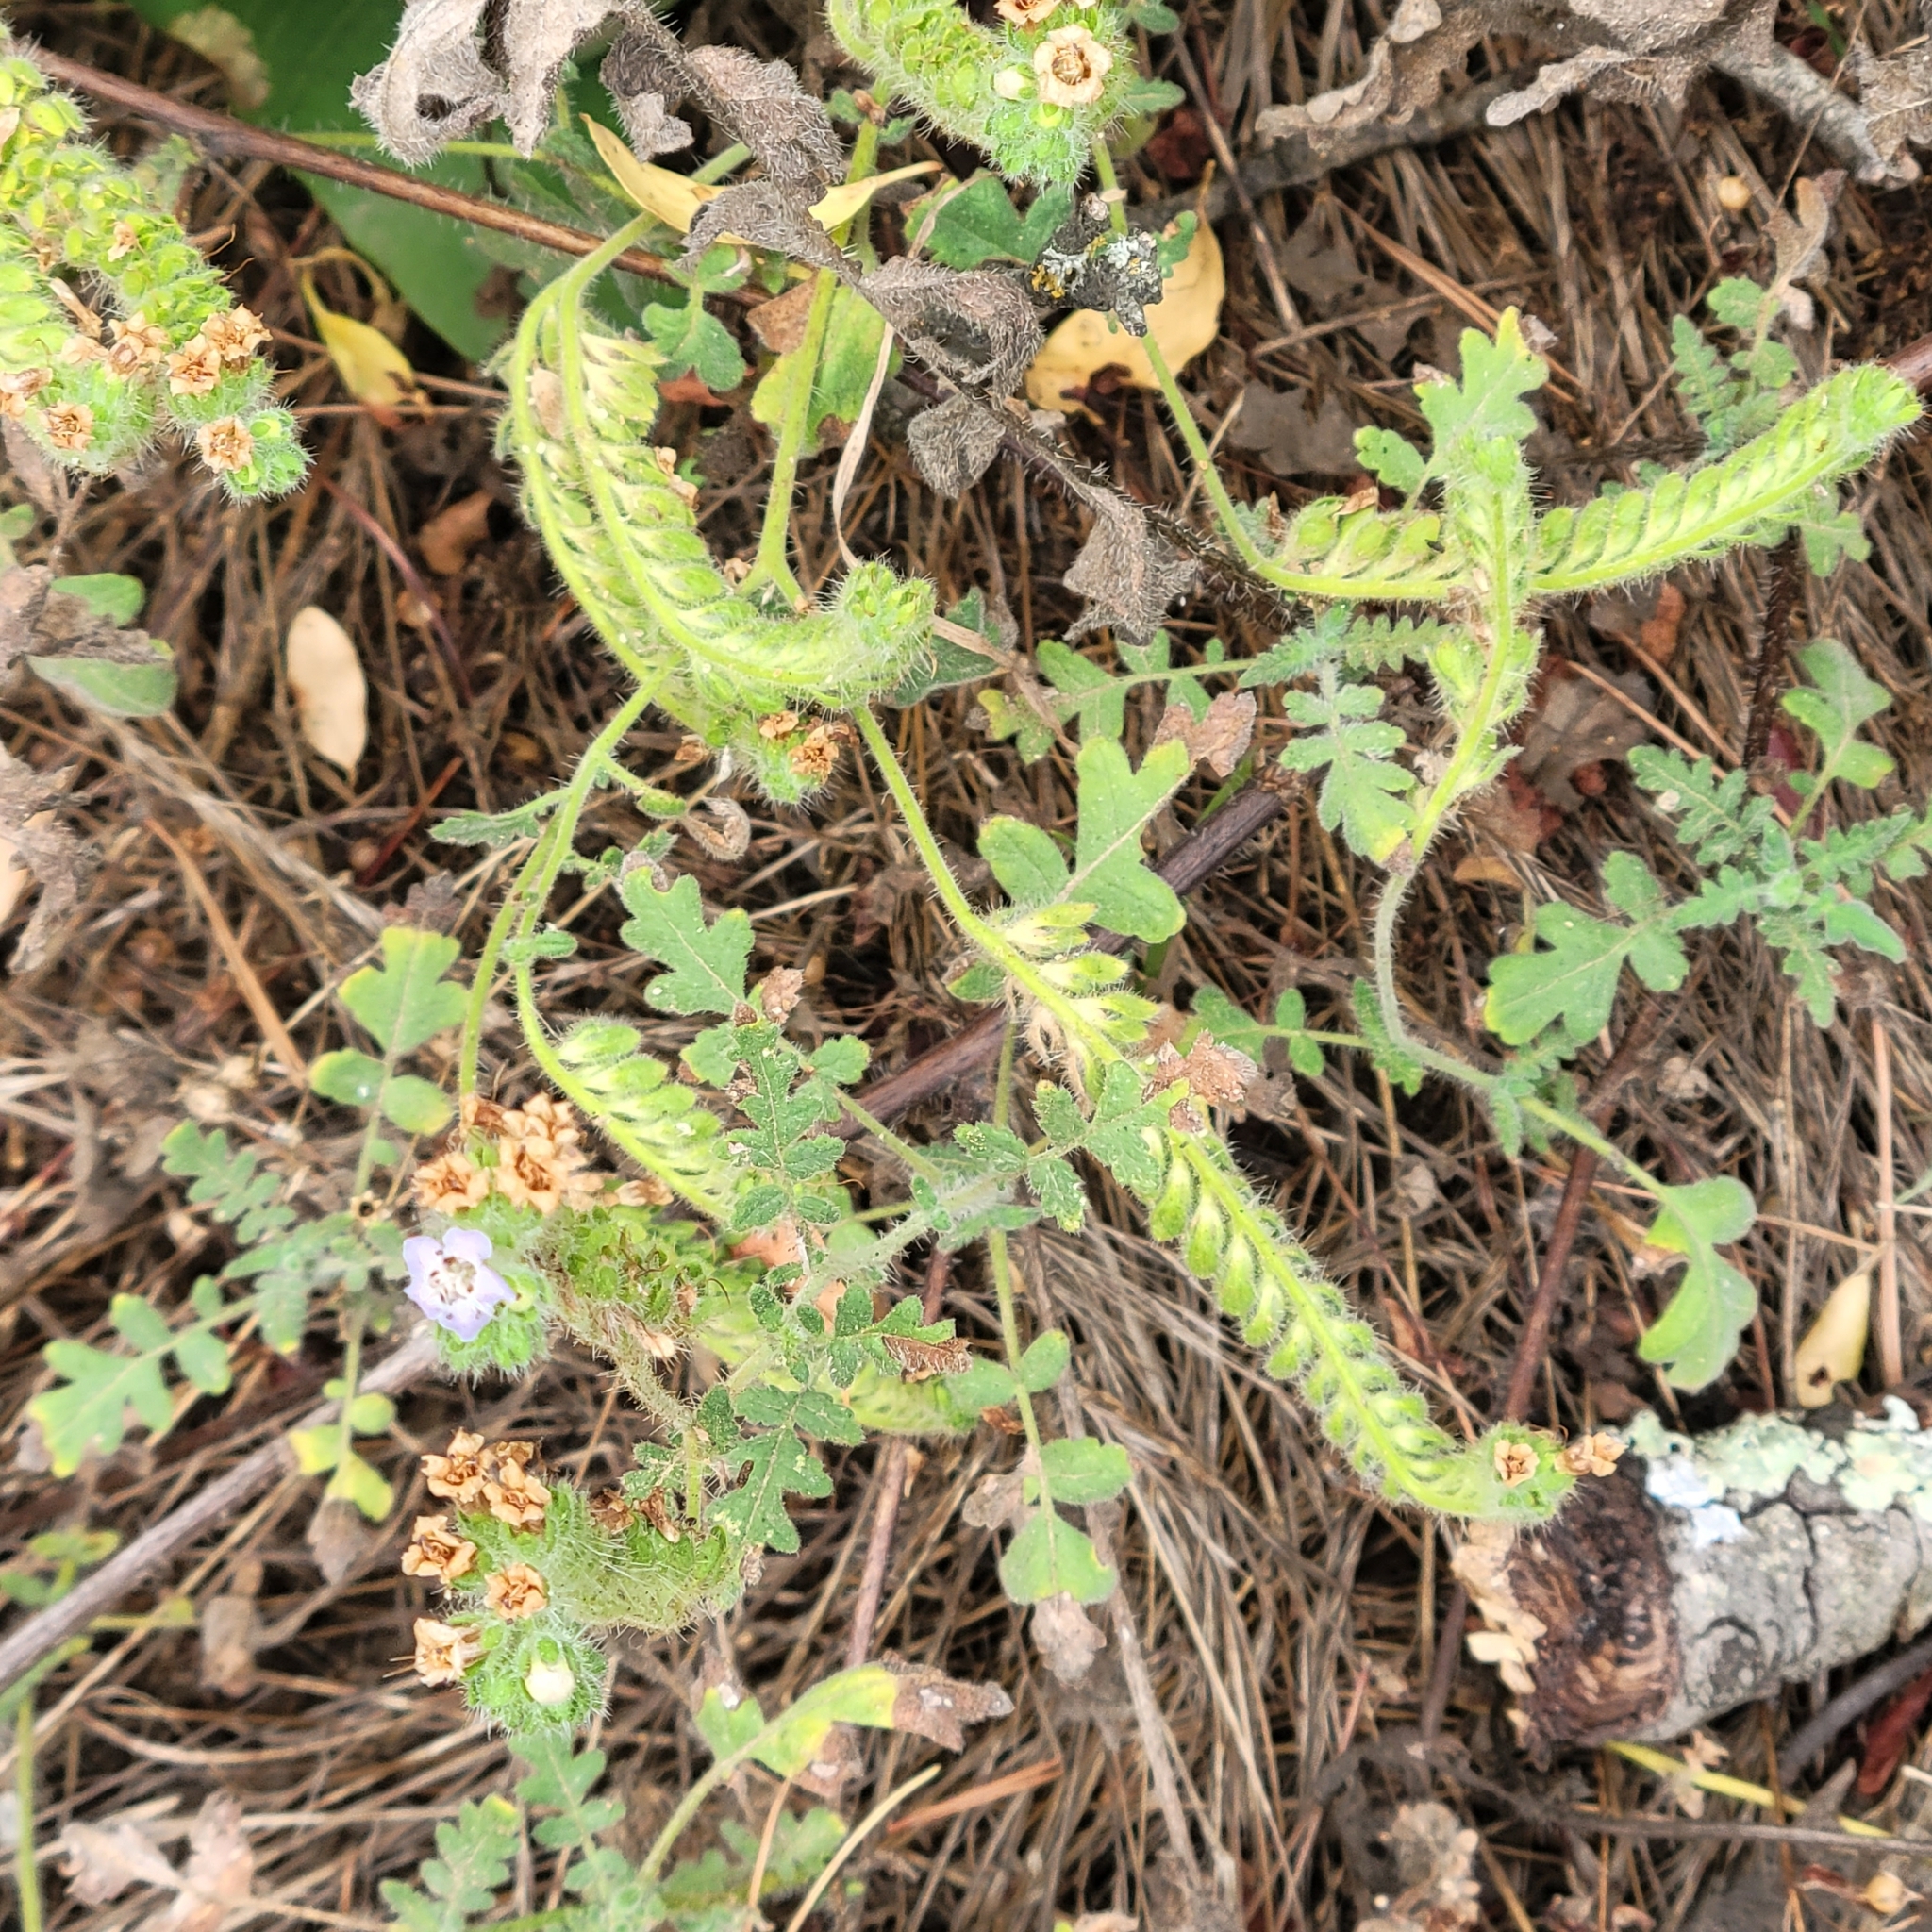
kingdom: Plantae
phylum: Tracheophyta
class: Magnoliopsida
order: Boraginales
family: Hydrophyllaceae
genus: Phacelia
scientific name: Phacelia ramosissima
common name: Branching phacelia
